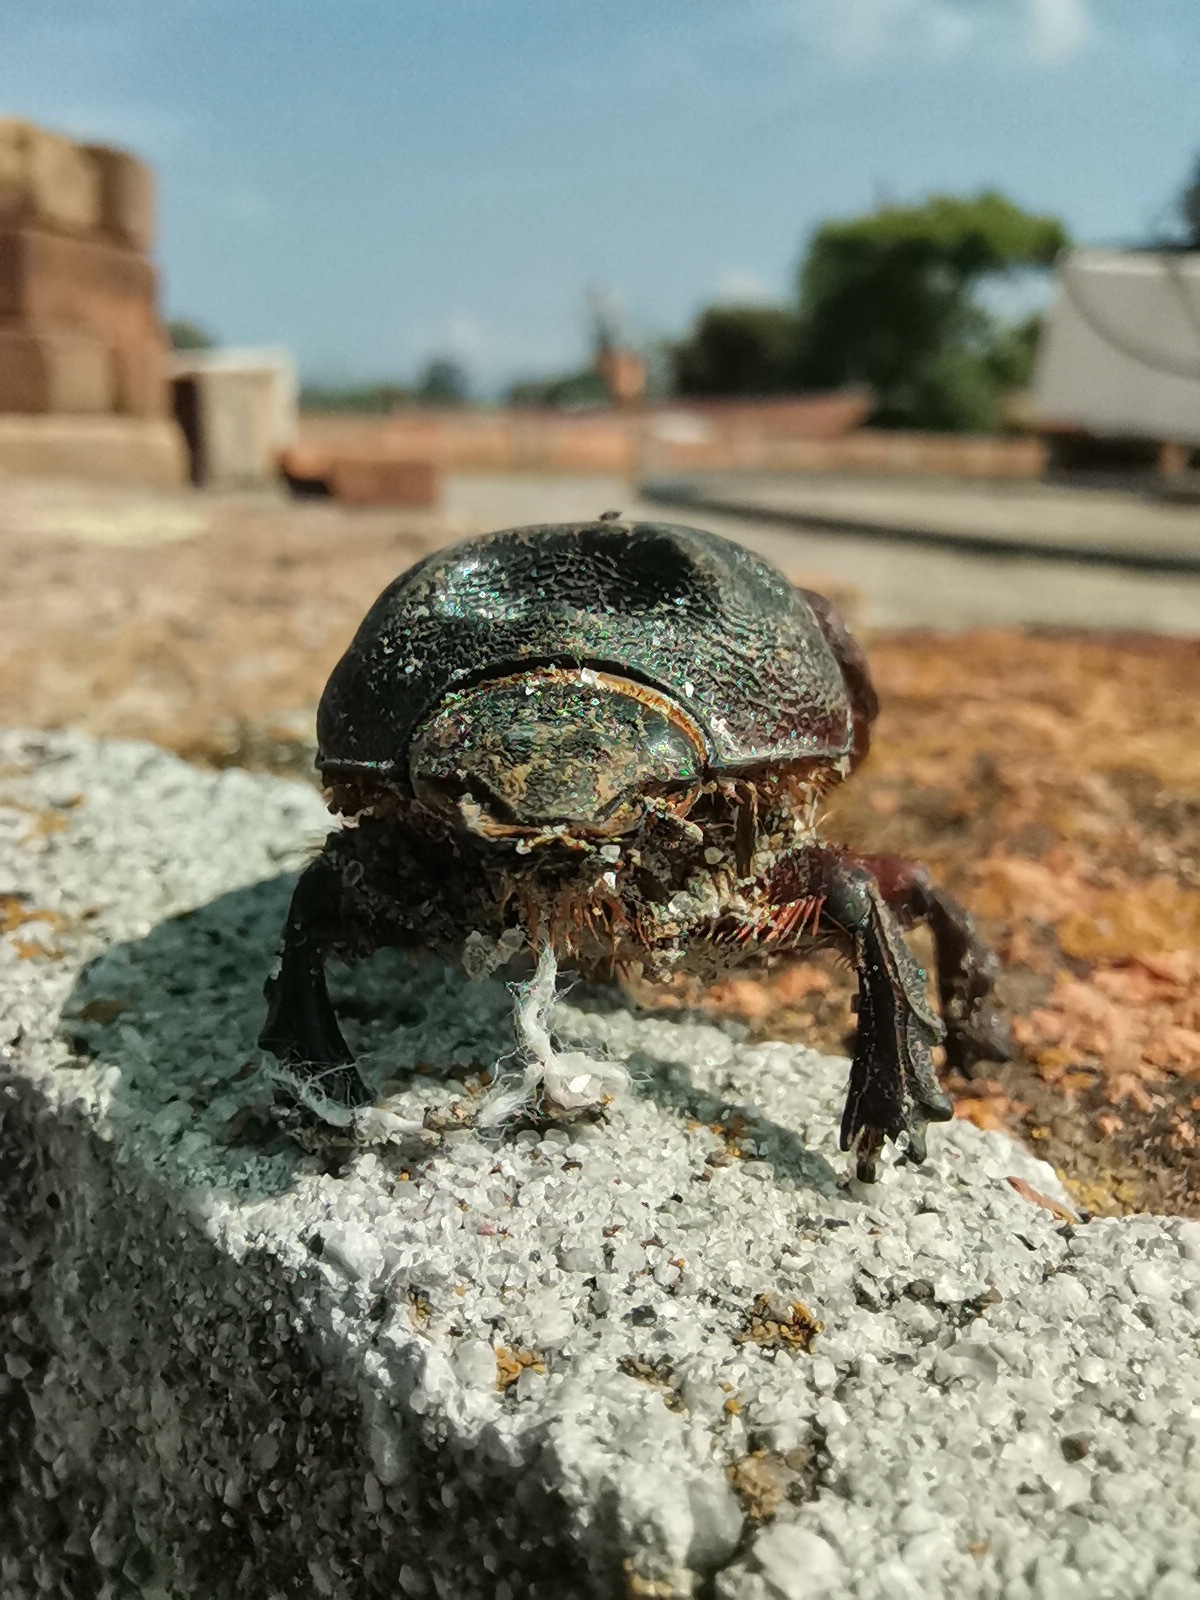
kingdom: Animalia
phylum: Arthropoda
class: Insecta
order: Coleoptera
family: Scarabaeidae
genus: Strategus
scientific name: Strategus aloeus
